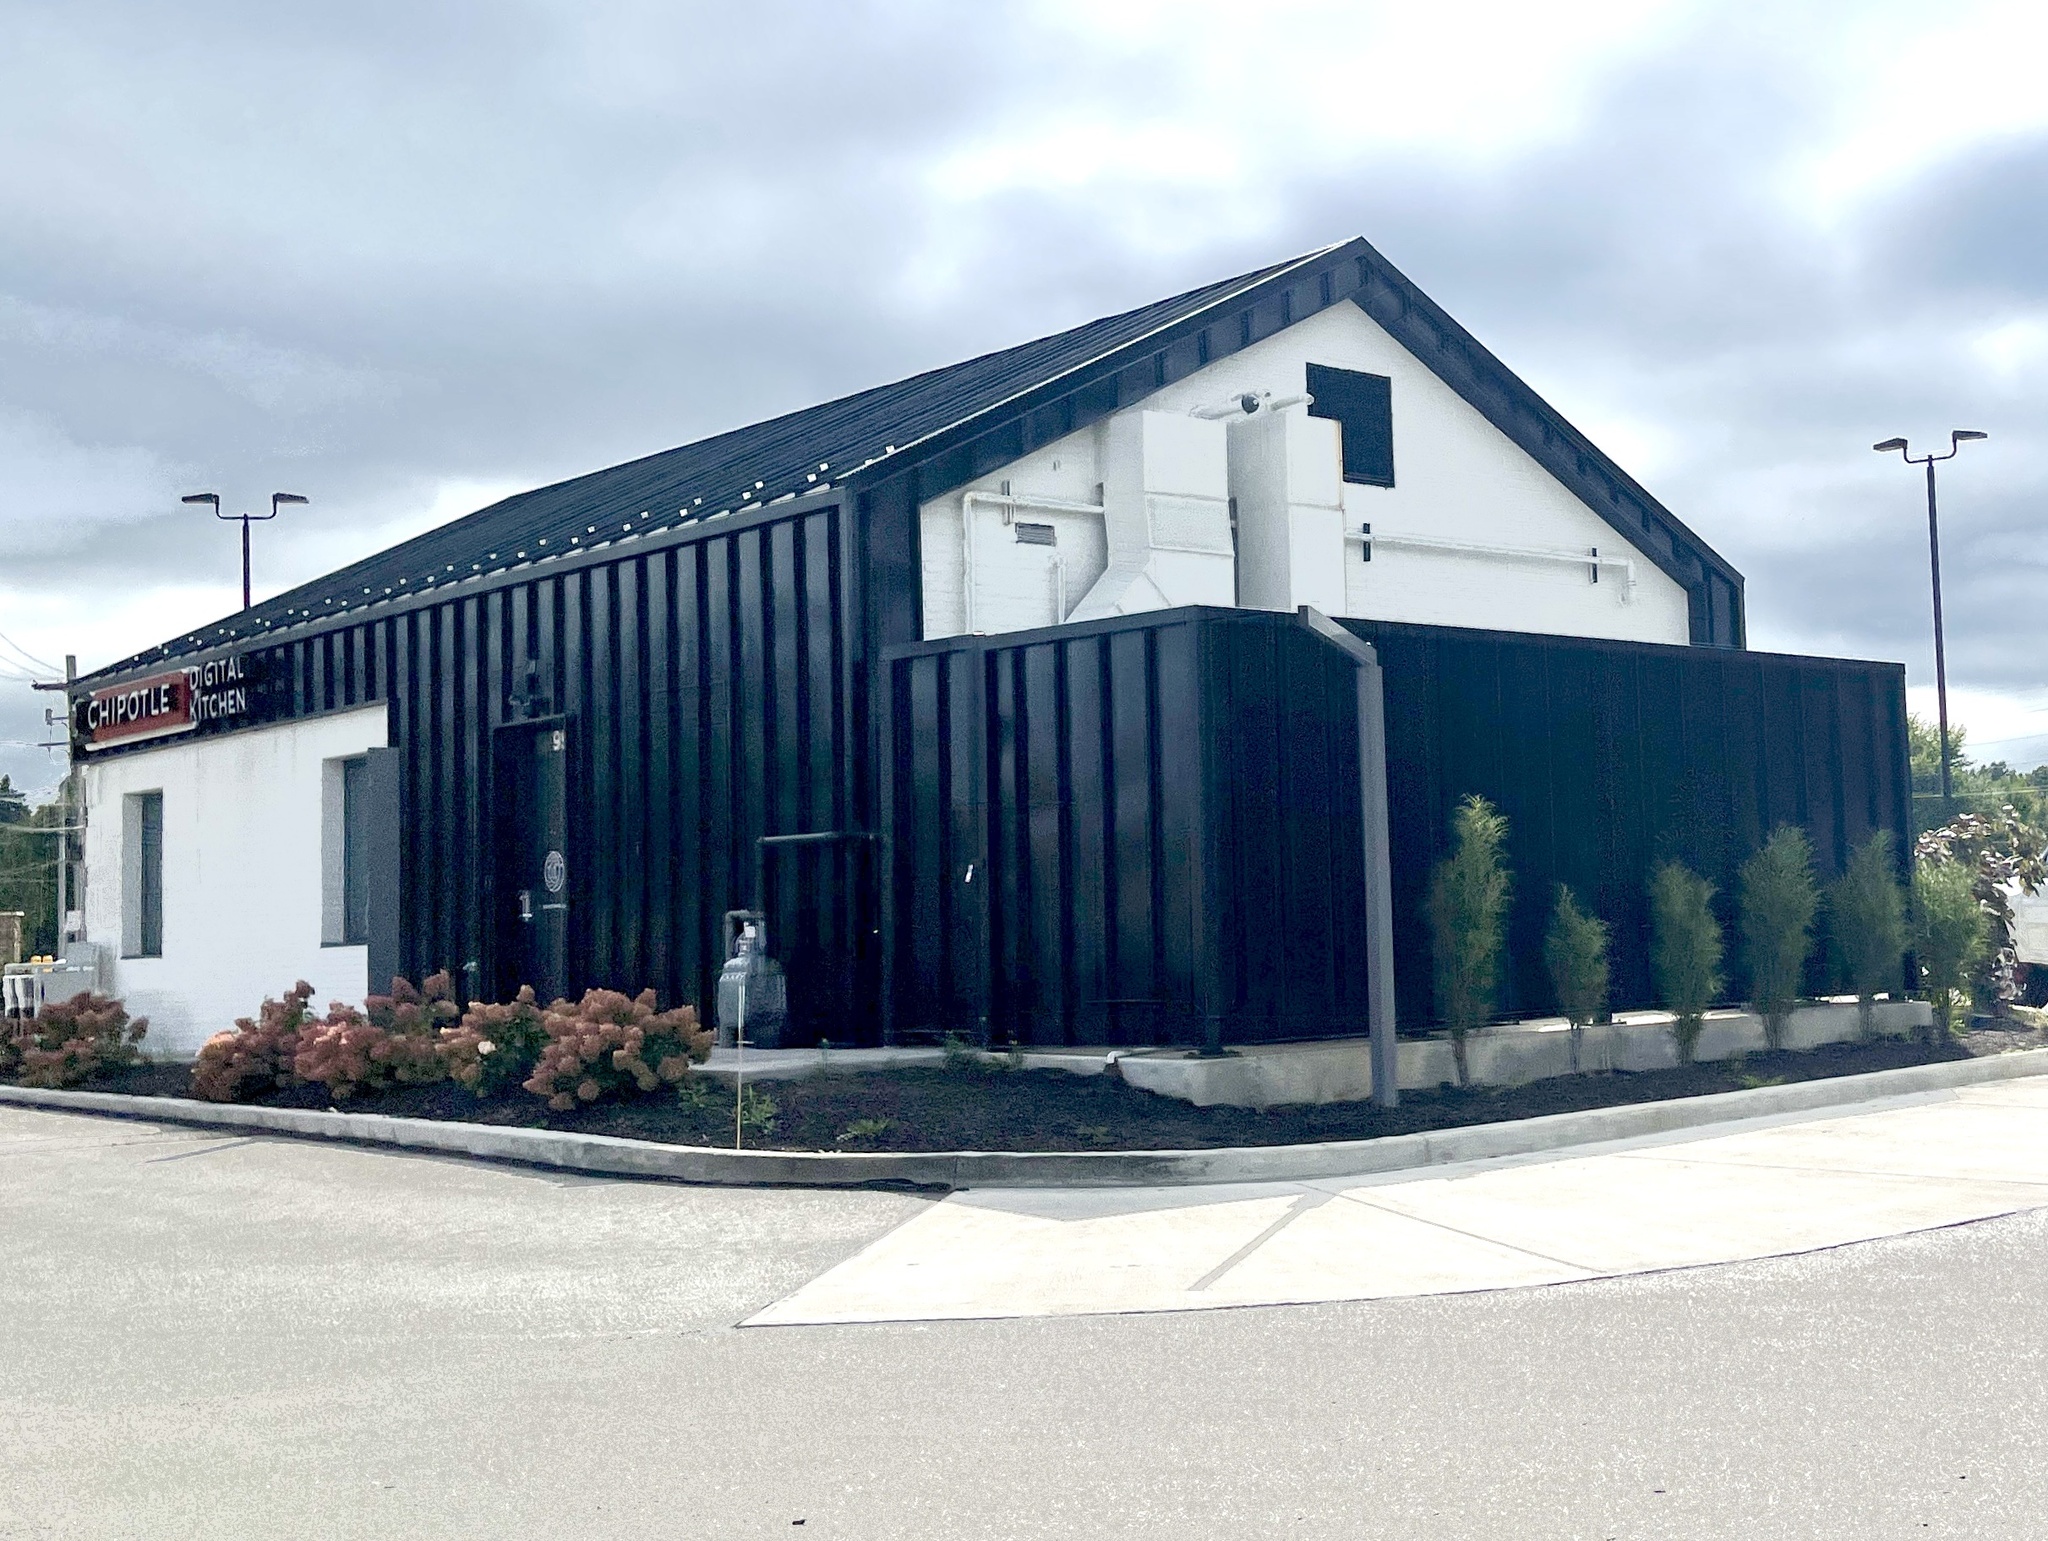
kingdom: Plantae
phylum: Tracheophyta
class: Magnoliopsida
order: Rosales
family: Rhamnaceae
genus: Frangula
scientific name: Frangula alnus
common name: Alder buckthorn
